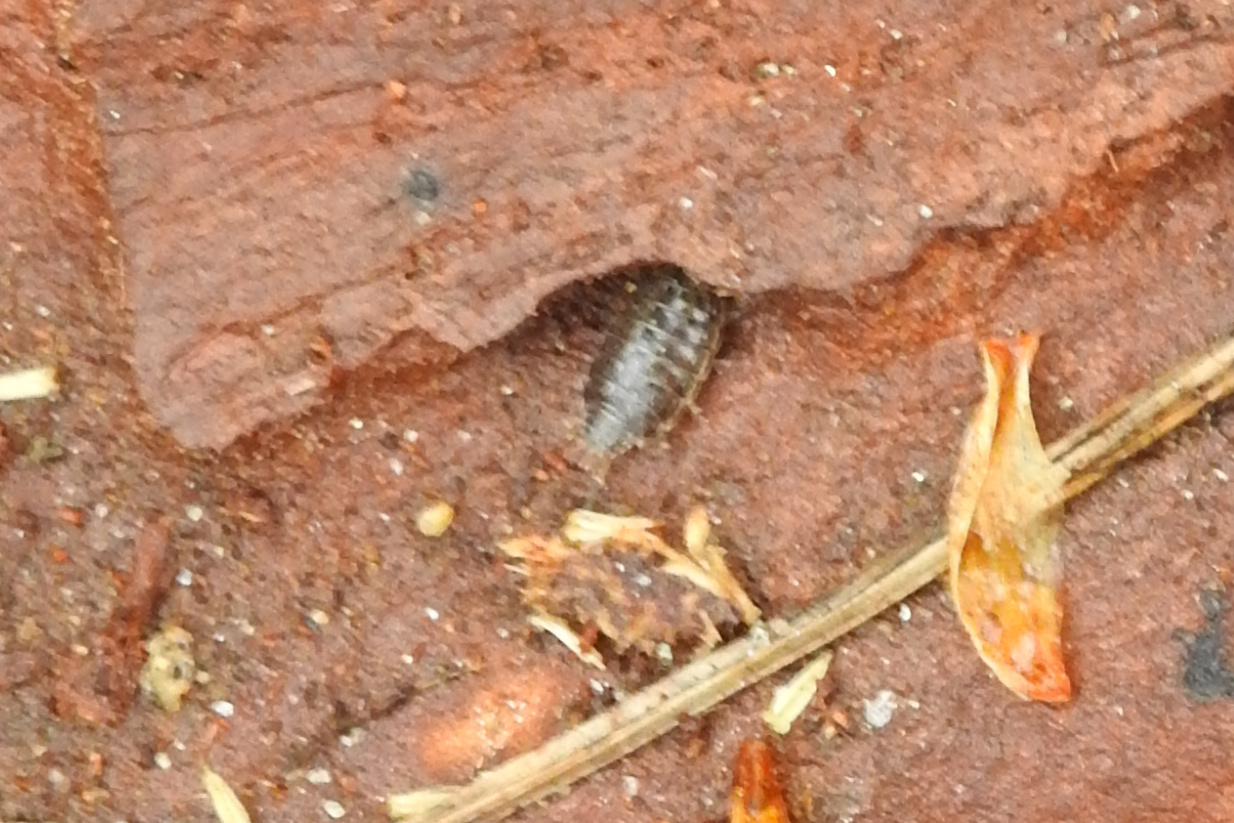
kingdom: Animalia
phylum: Arthropoda
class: Malacostraca
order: Isopoda
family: Philosciidae
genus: Philoscia
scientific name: Philoscia muscorum
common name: Common striped woodlouse
